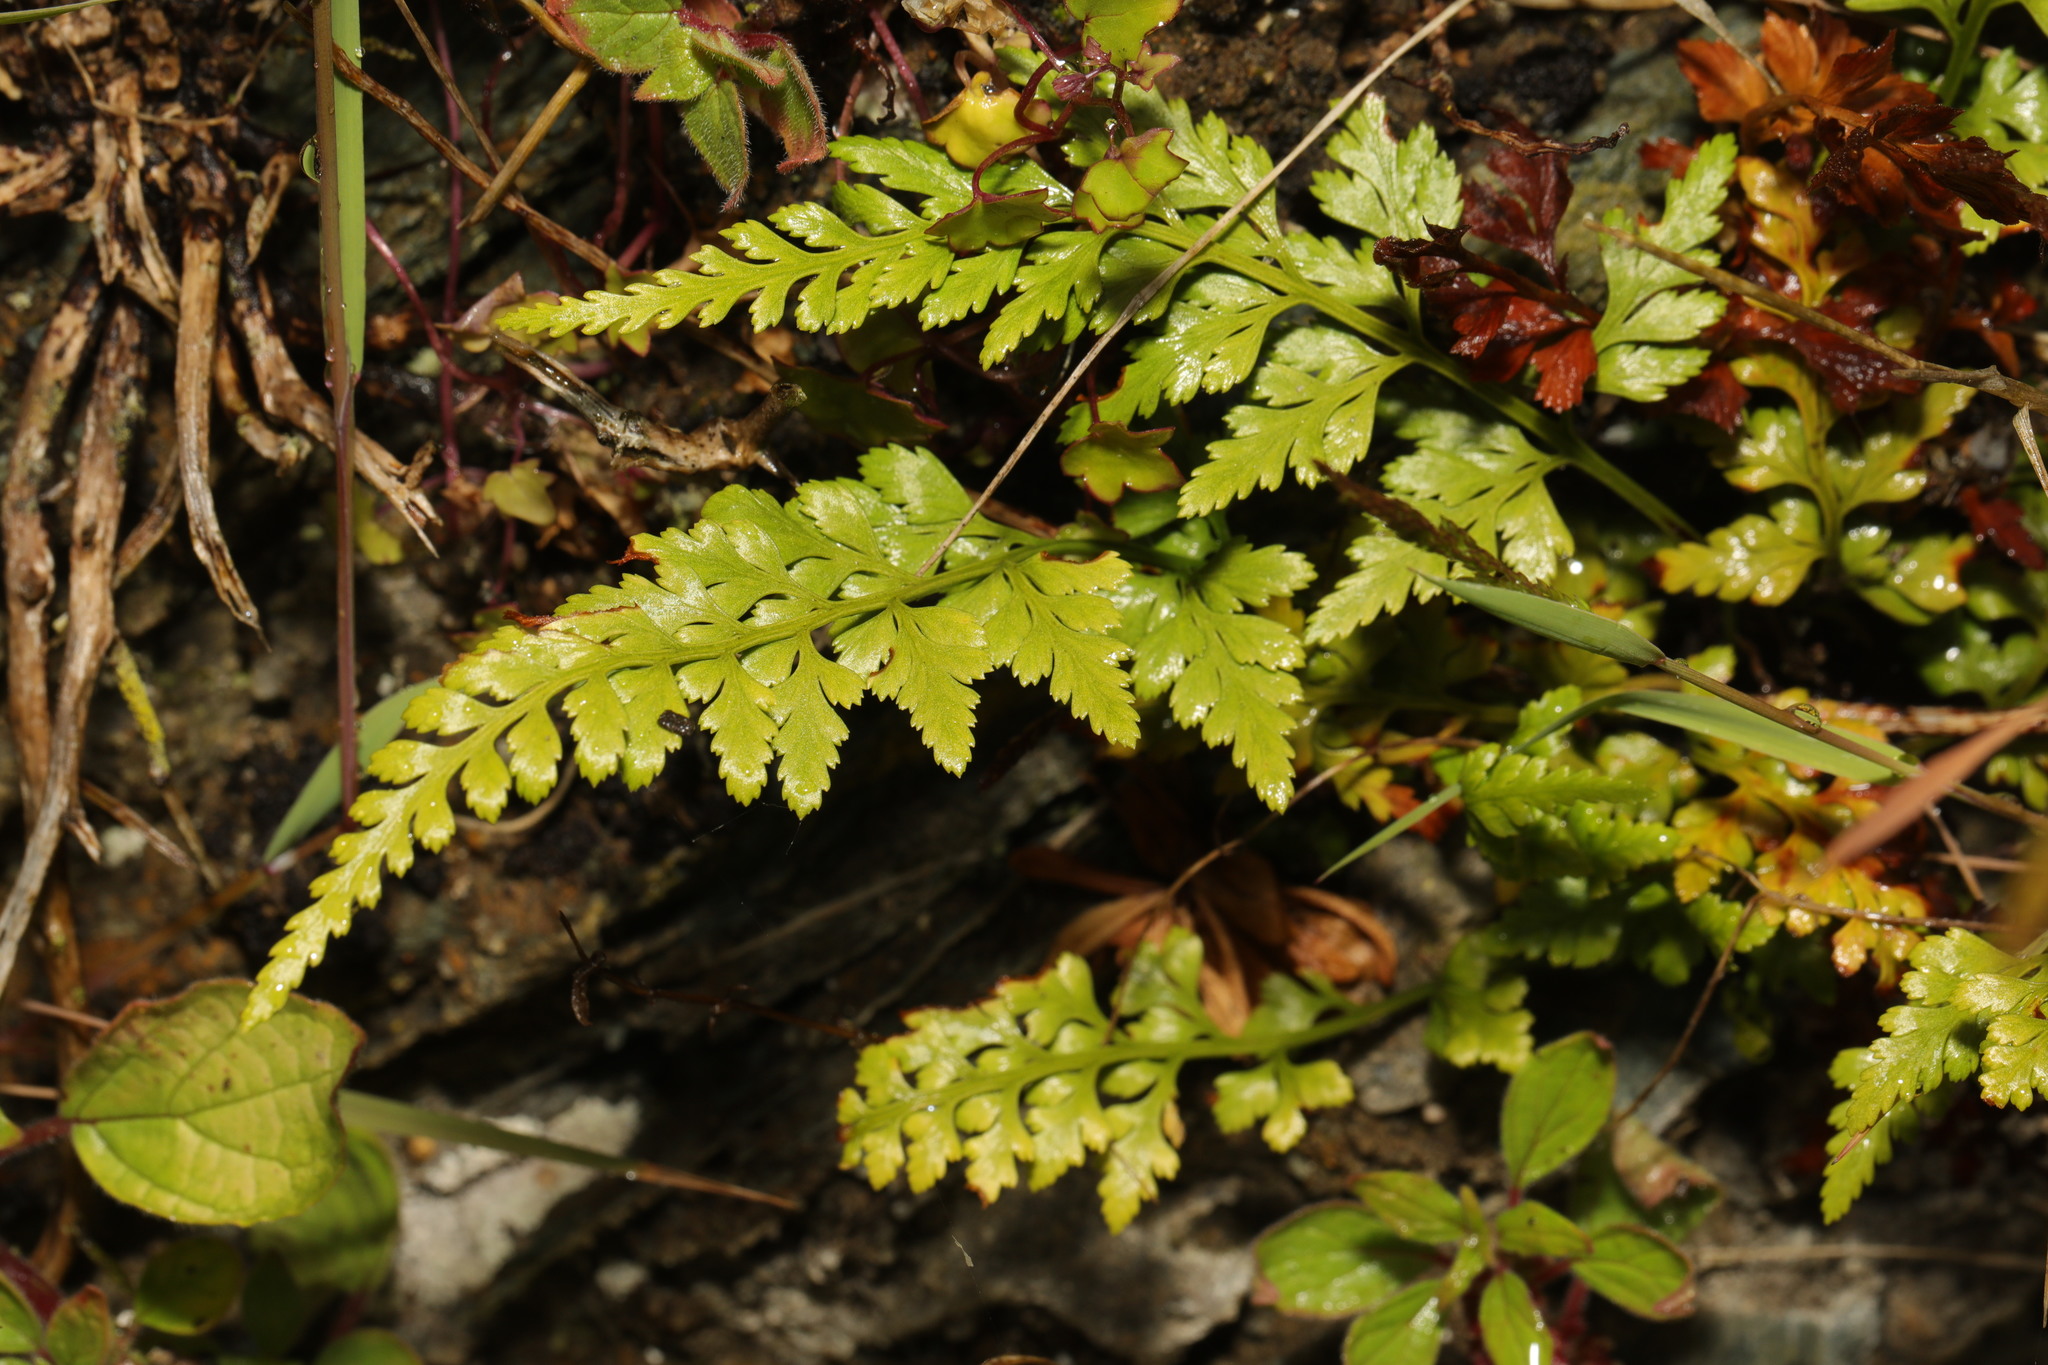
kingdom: Plantae
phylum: Tracheophyta
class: Polypodiopsida
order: Polypodiales
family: Aspleniaceae
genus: Asplenium
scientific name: Asplenium adiantum-nigrum
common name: Black spleenwort
